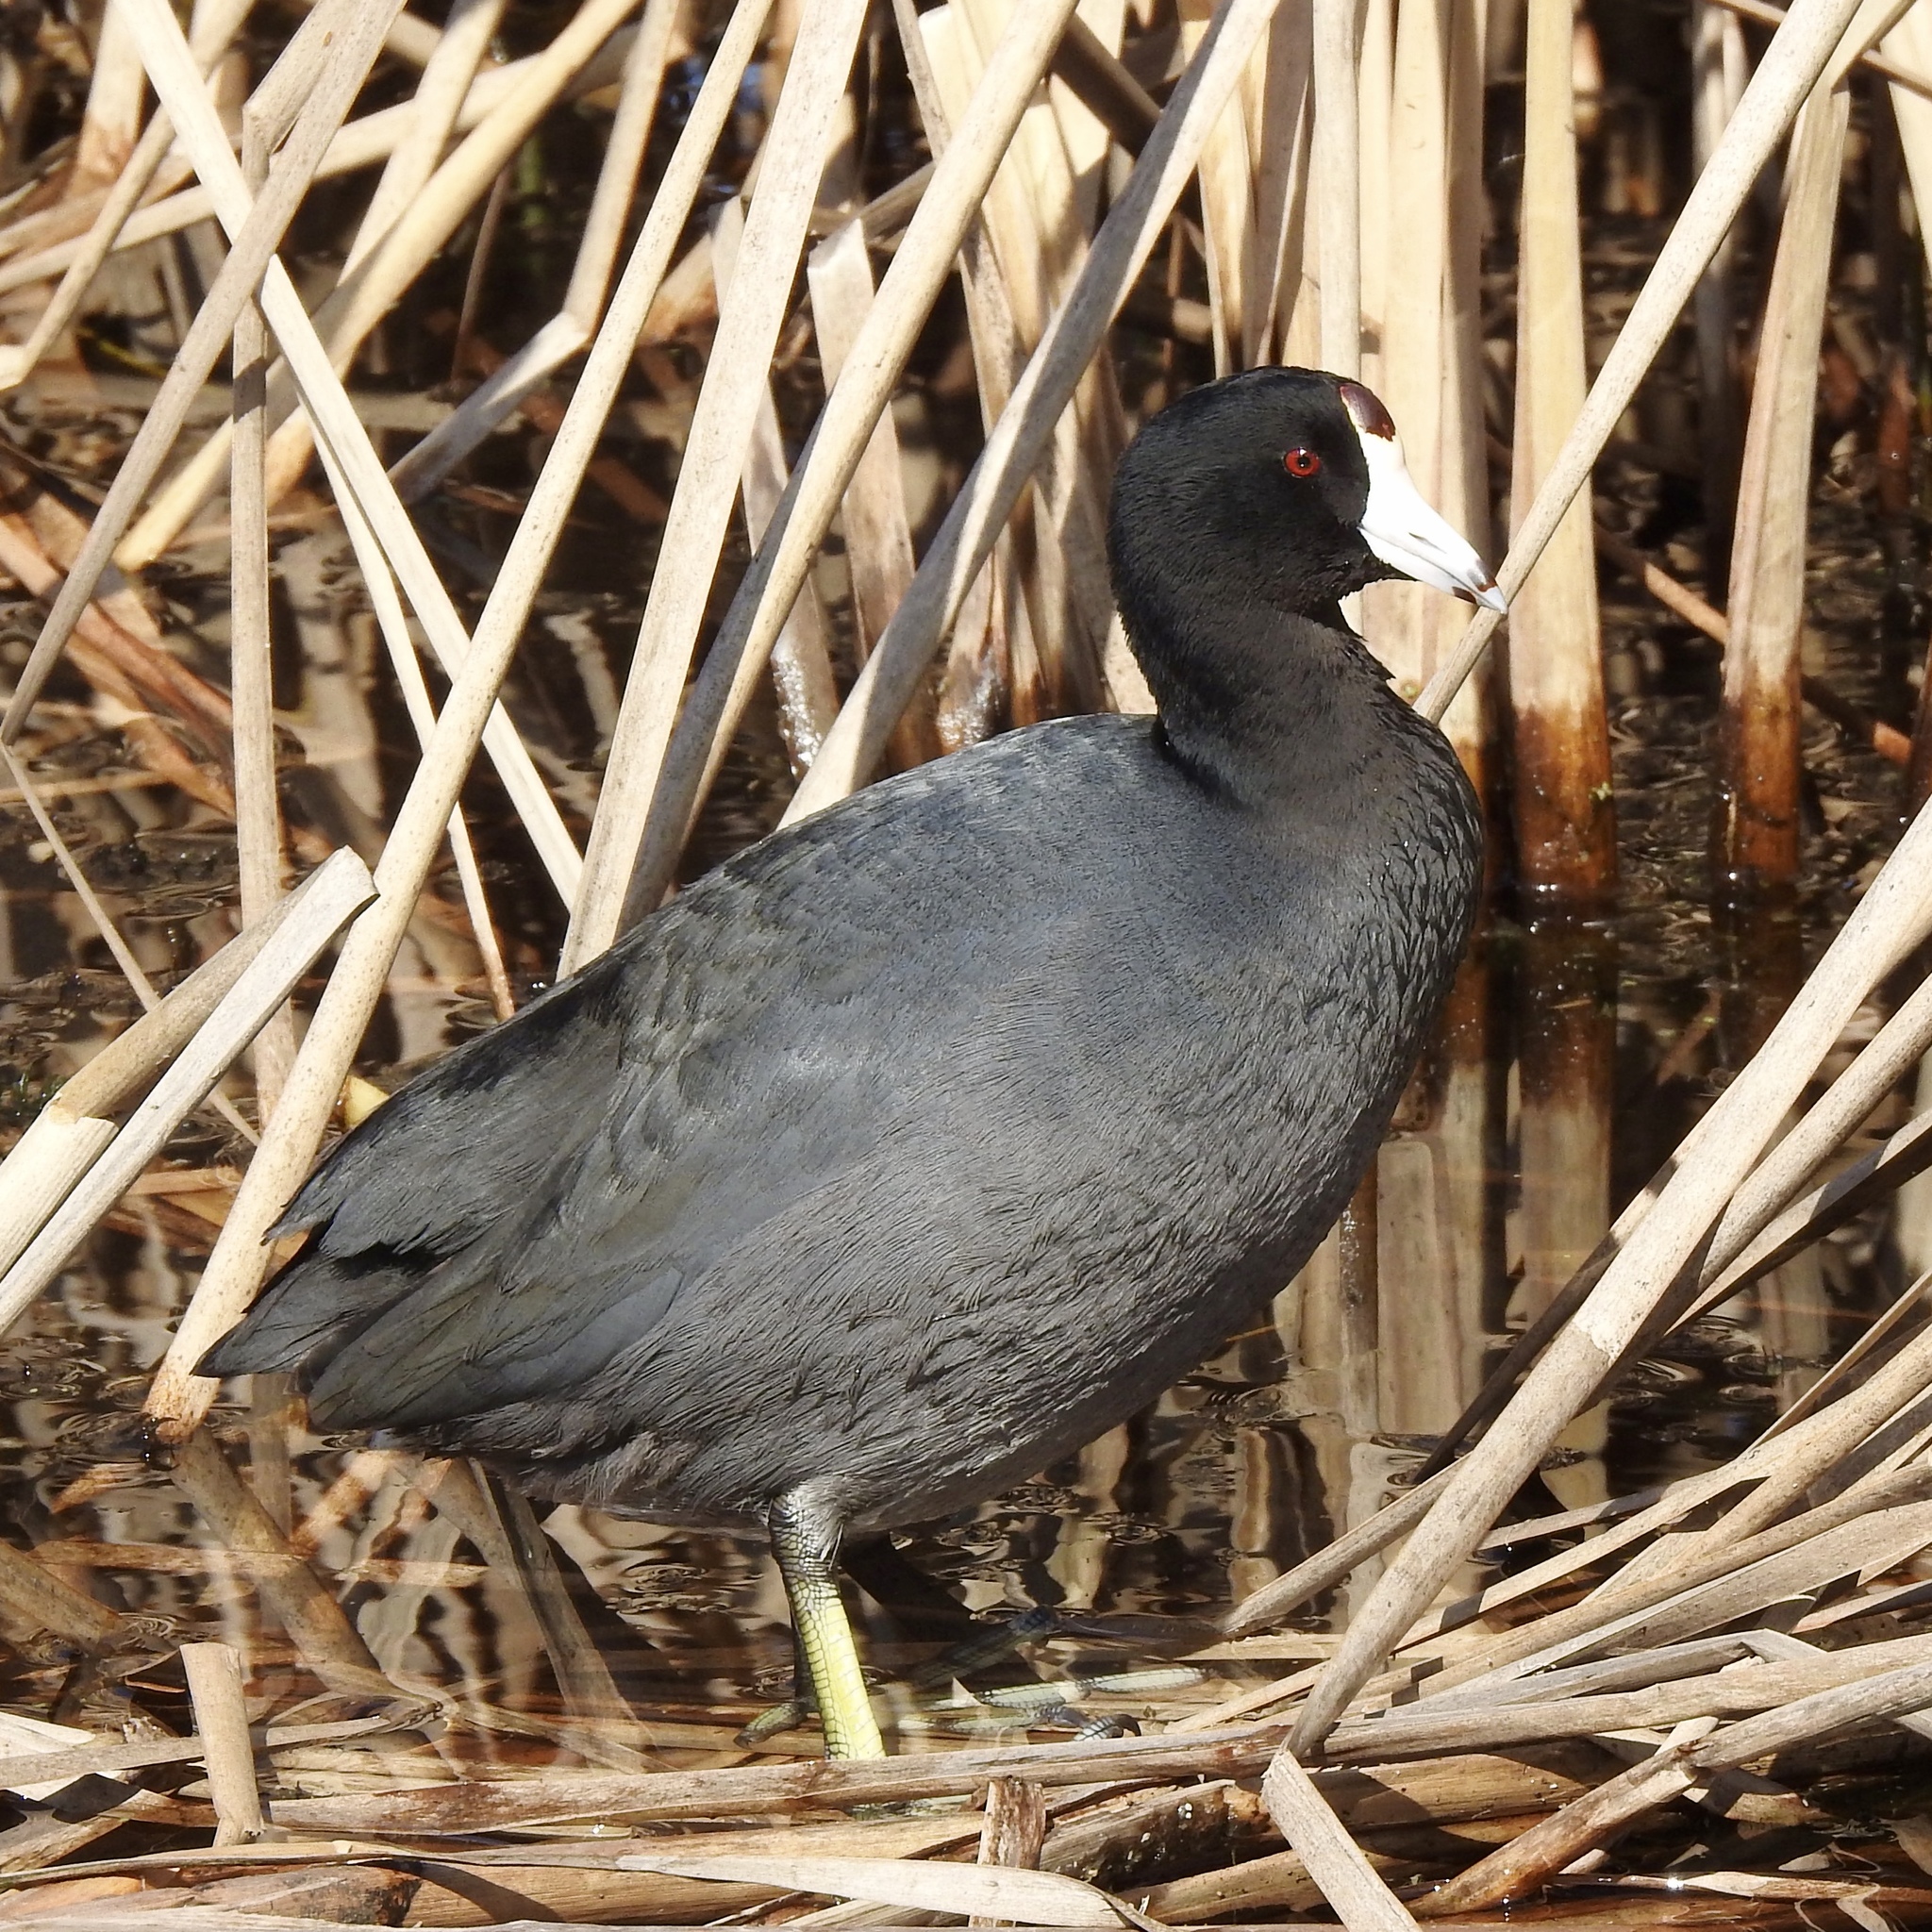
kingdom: Animalia
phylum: Chordata
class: Aves
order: Gruiformes
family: Rallidae
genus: Fulica
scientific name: Fulica americana
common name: American coot
